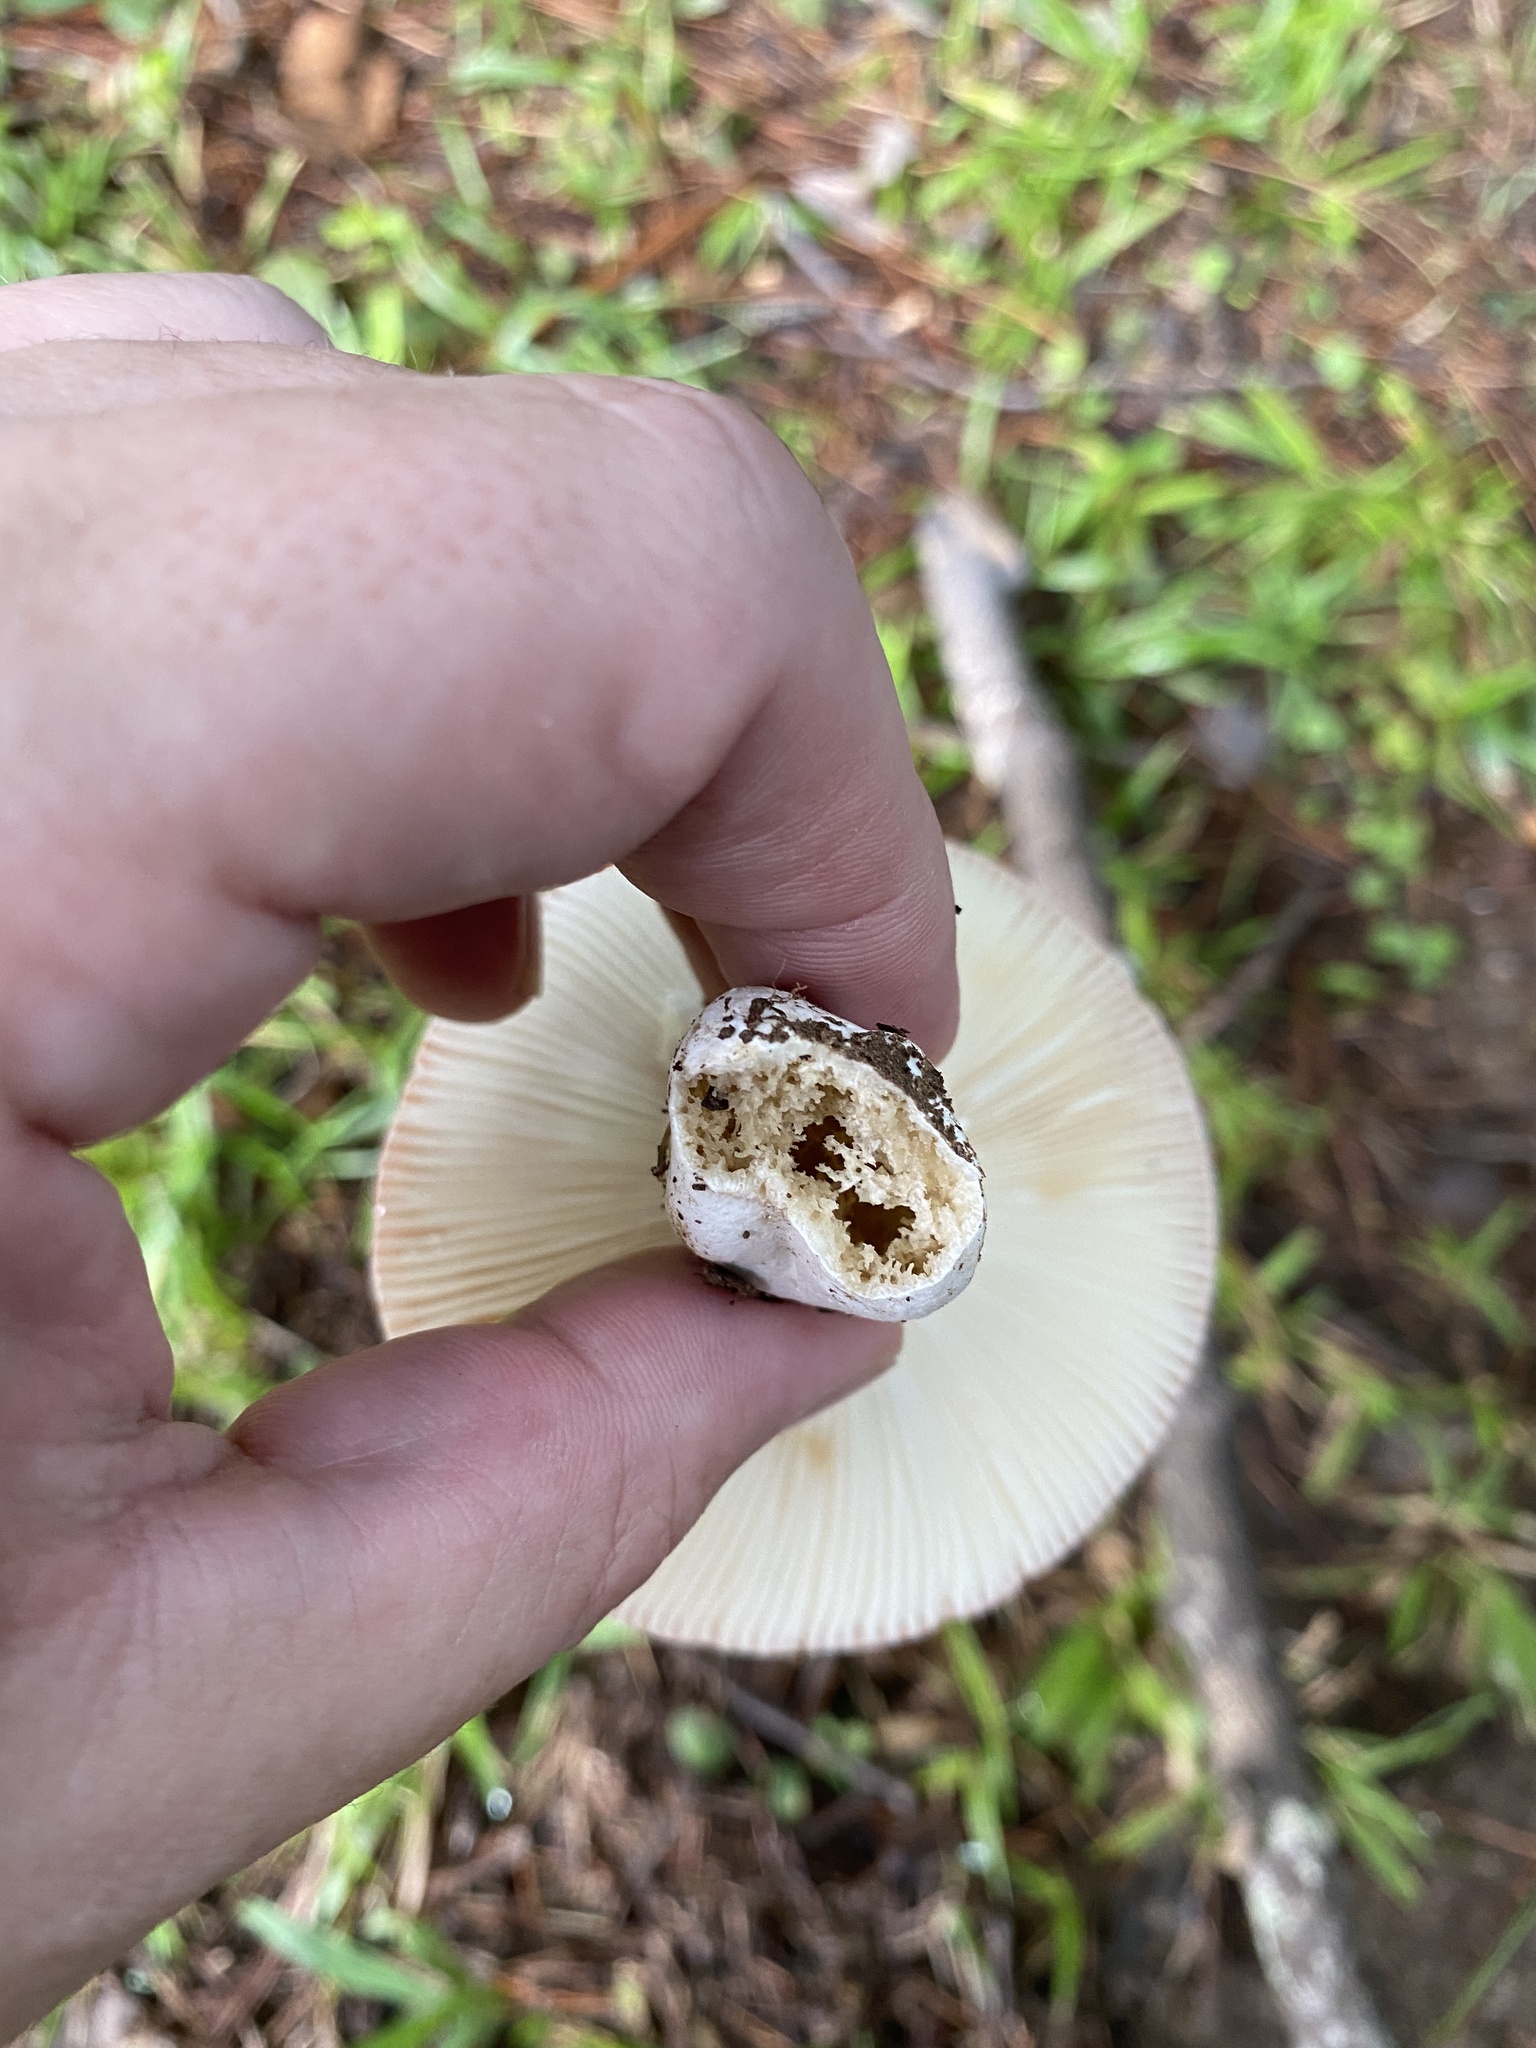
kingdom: Fungi
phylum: Basidiomycota
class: Agaricomycetes
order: Russulales
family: Russulaceae
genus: Russula
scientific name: Russula
